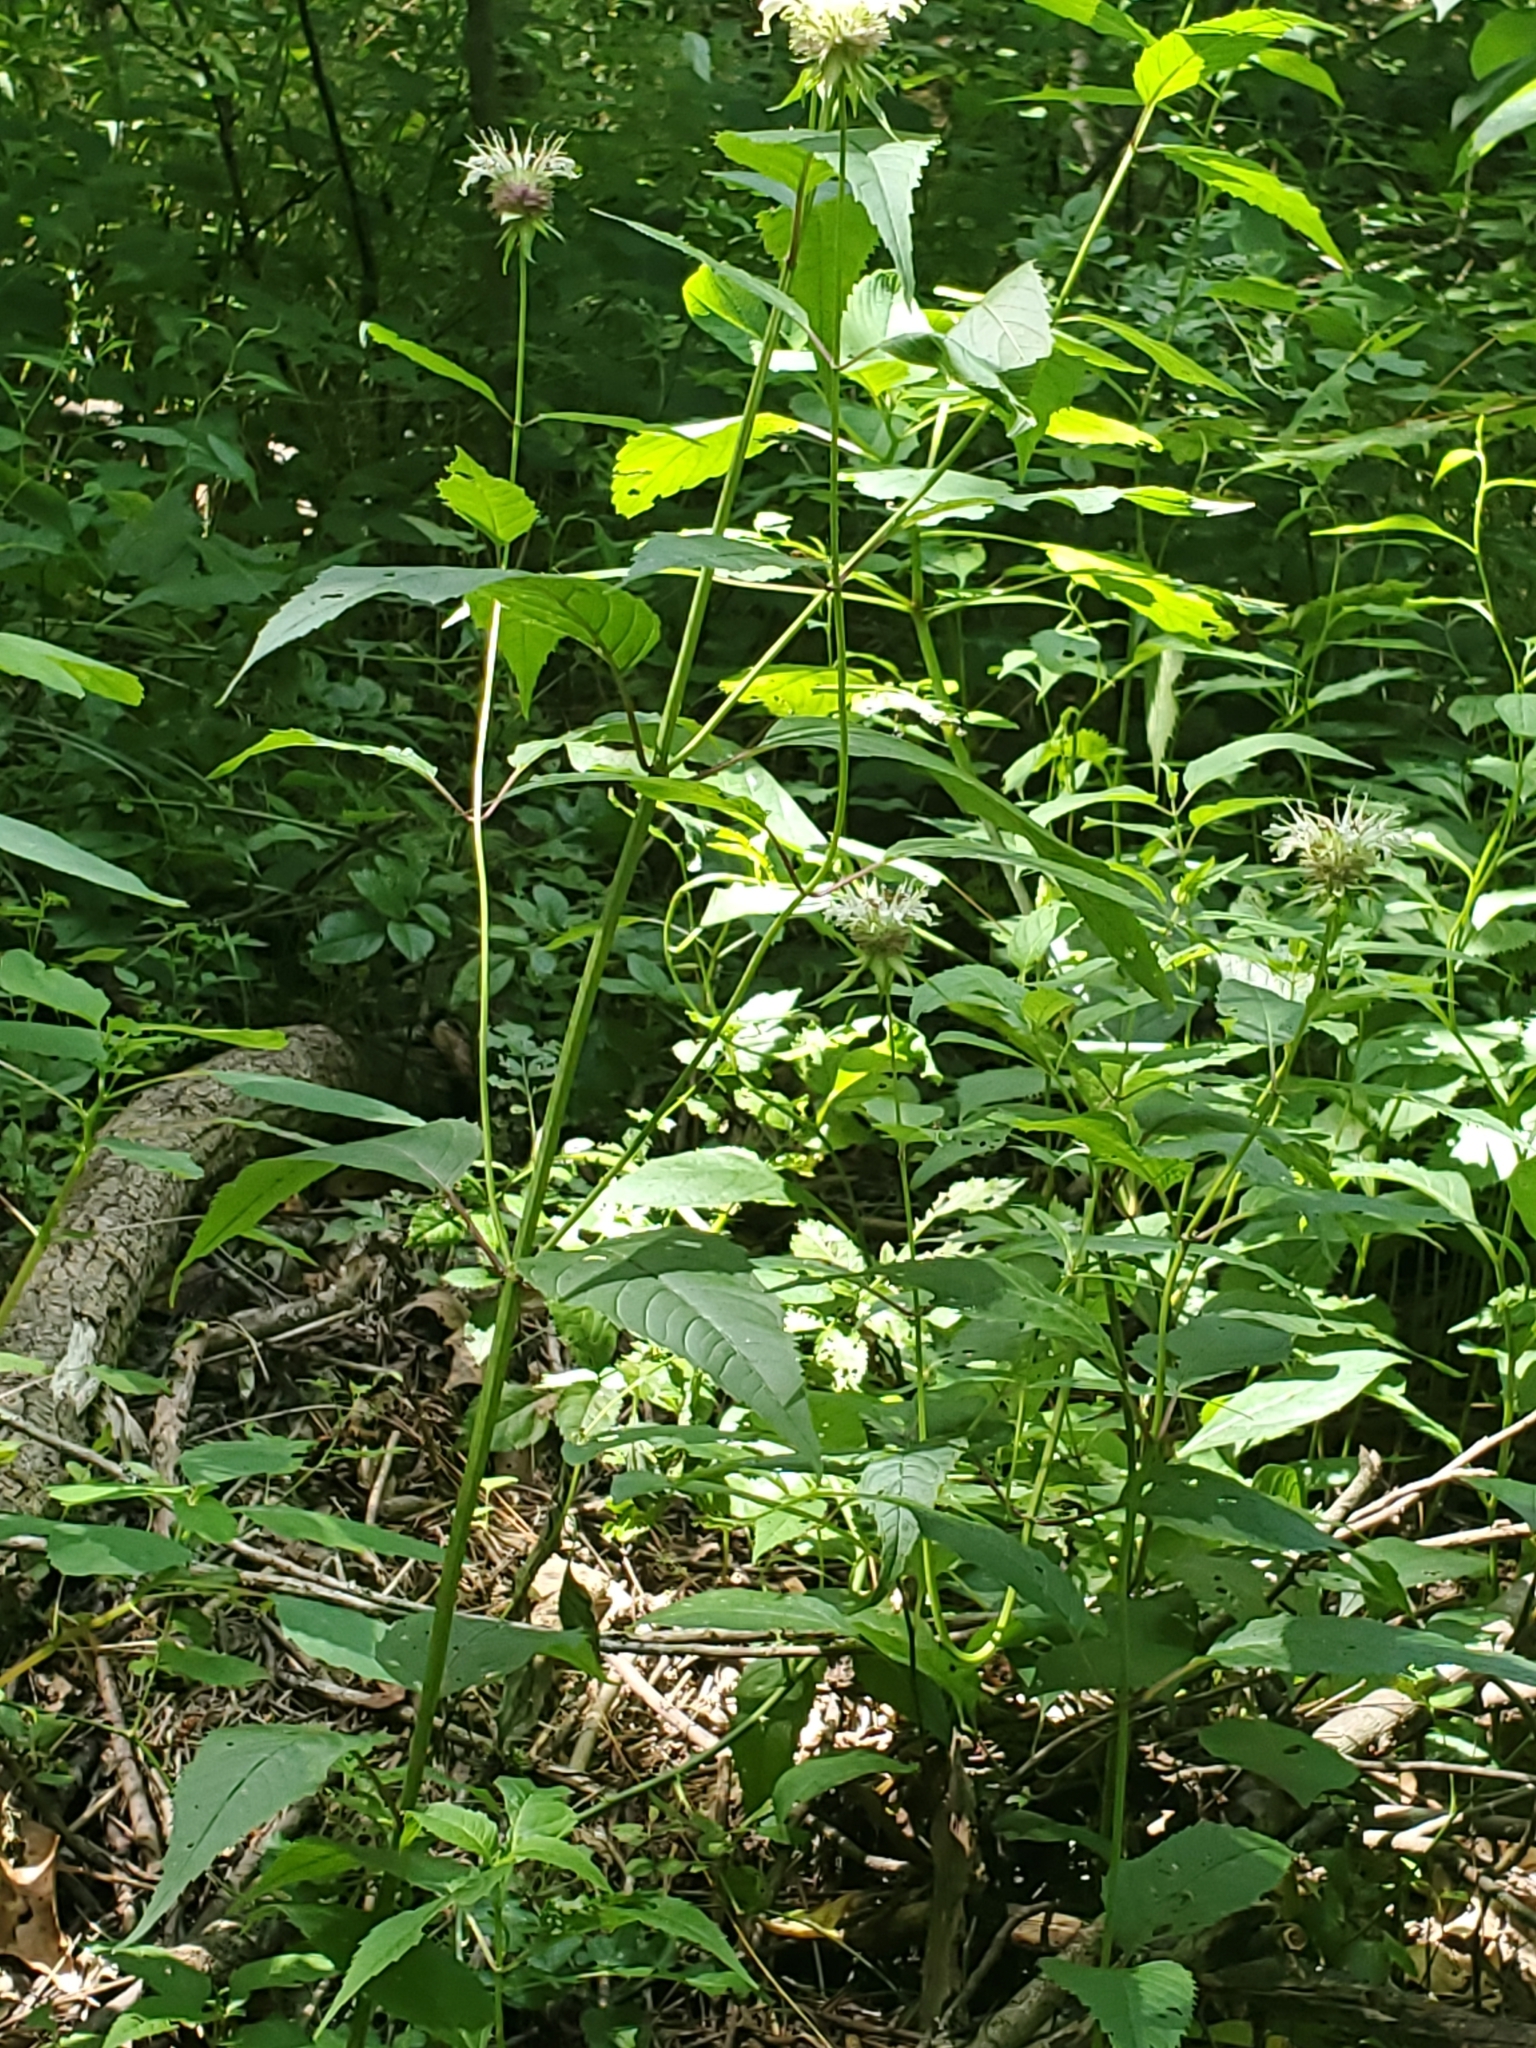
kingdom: Plantae
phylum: Tracheophyta
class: Magnoliopsida
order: Lamiales
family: Lamiaceae
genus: Monarda
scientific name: Monarda clinopodia
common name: Basil beebalm
